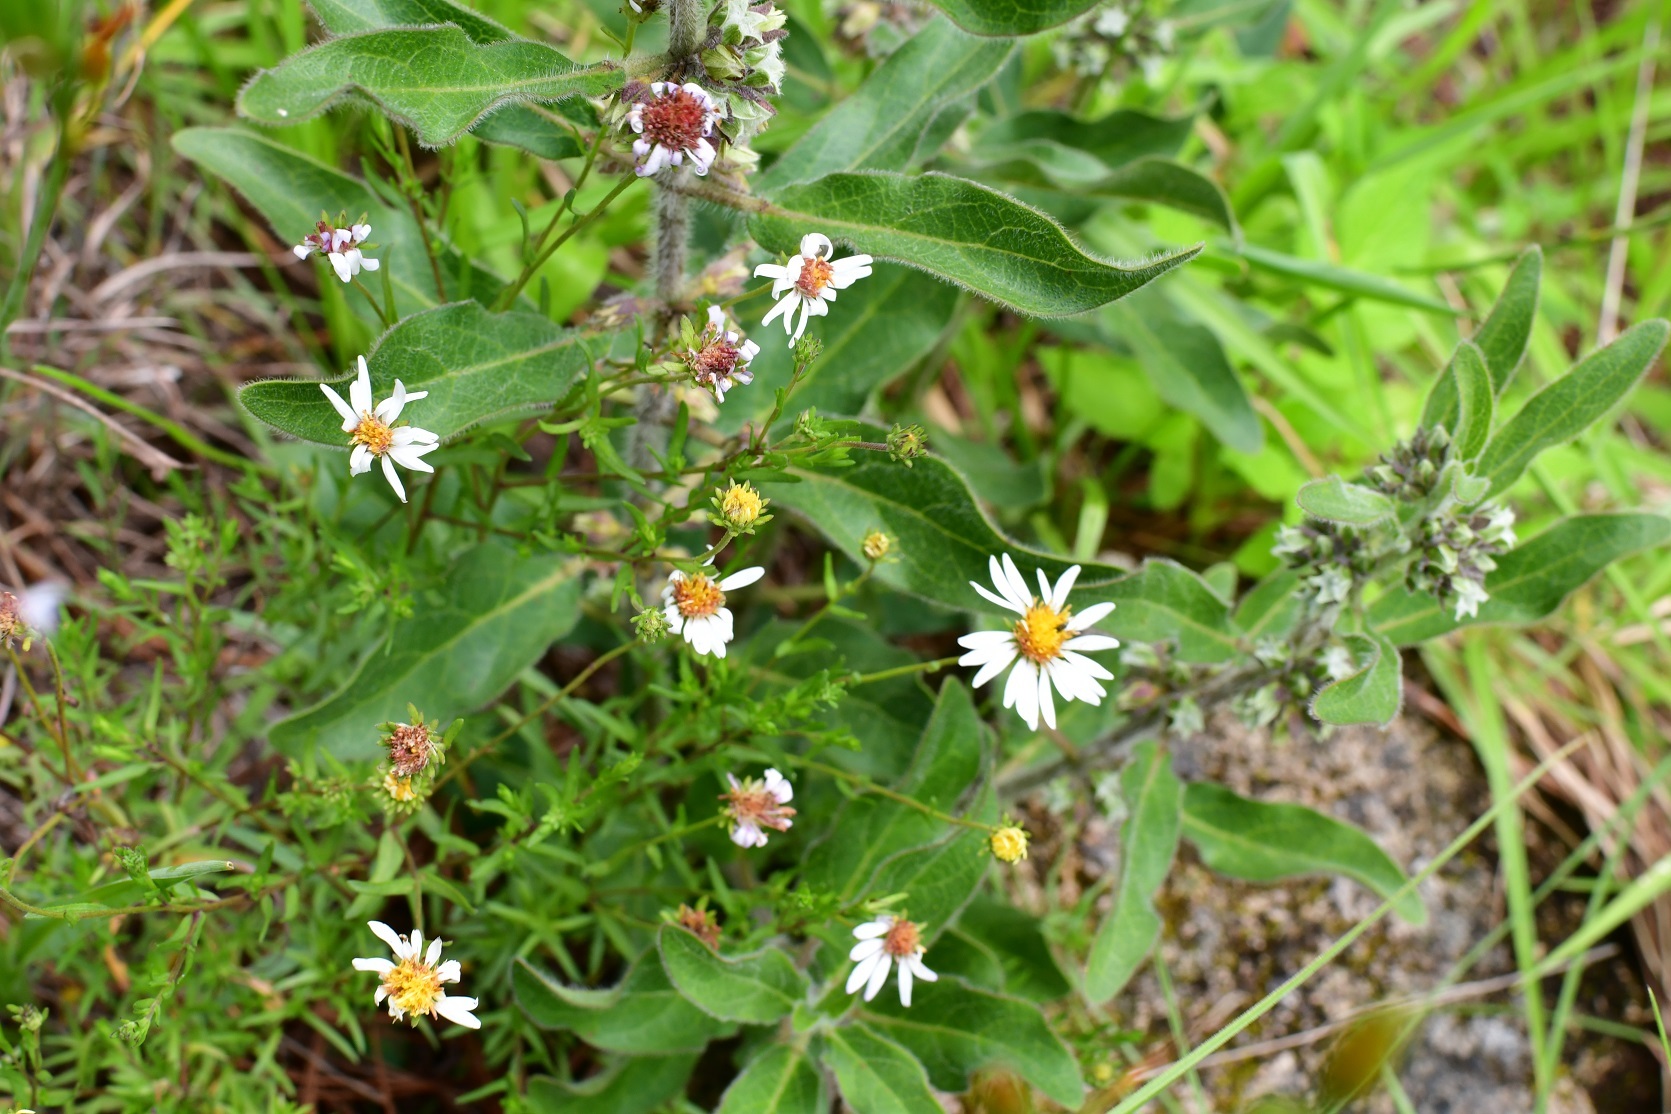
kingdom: Plantae
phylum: Tracheophyta
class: Magnoliopsida
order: Asterales
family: Asteraceae
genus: Symphyotrichum
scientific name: Symphyotrichum bullatum
